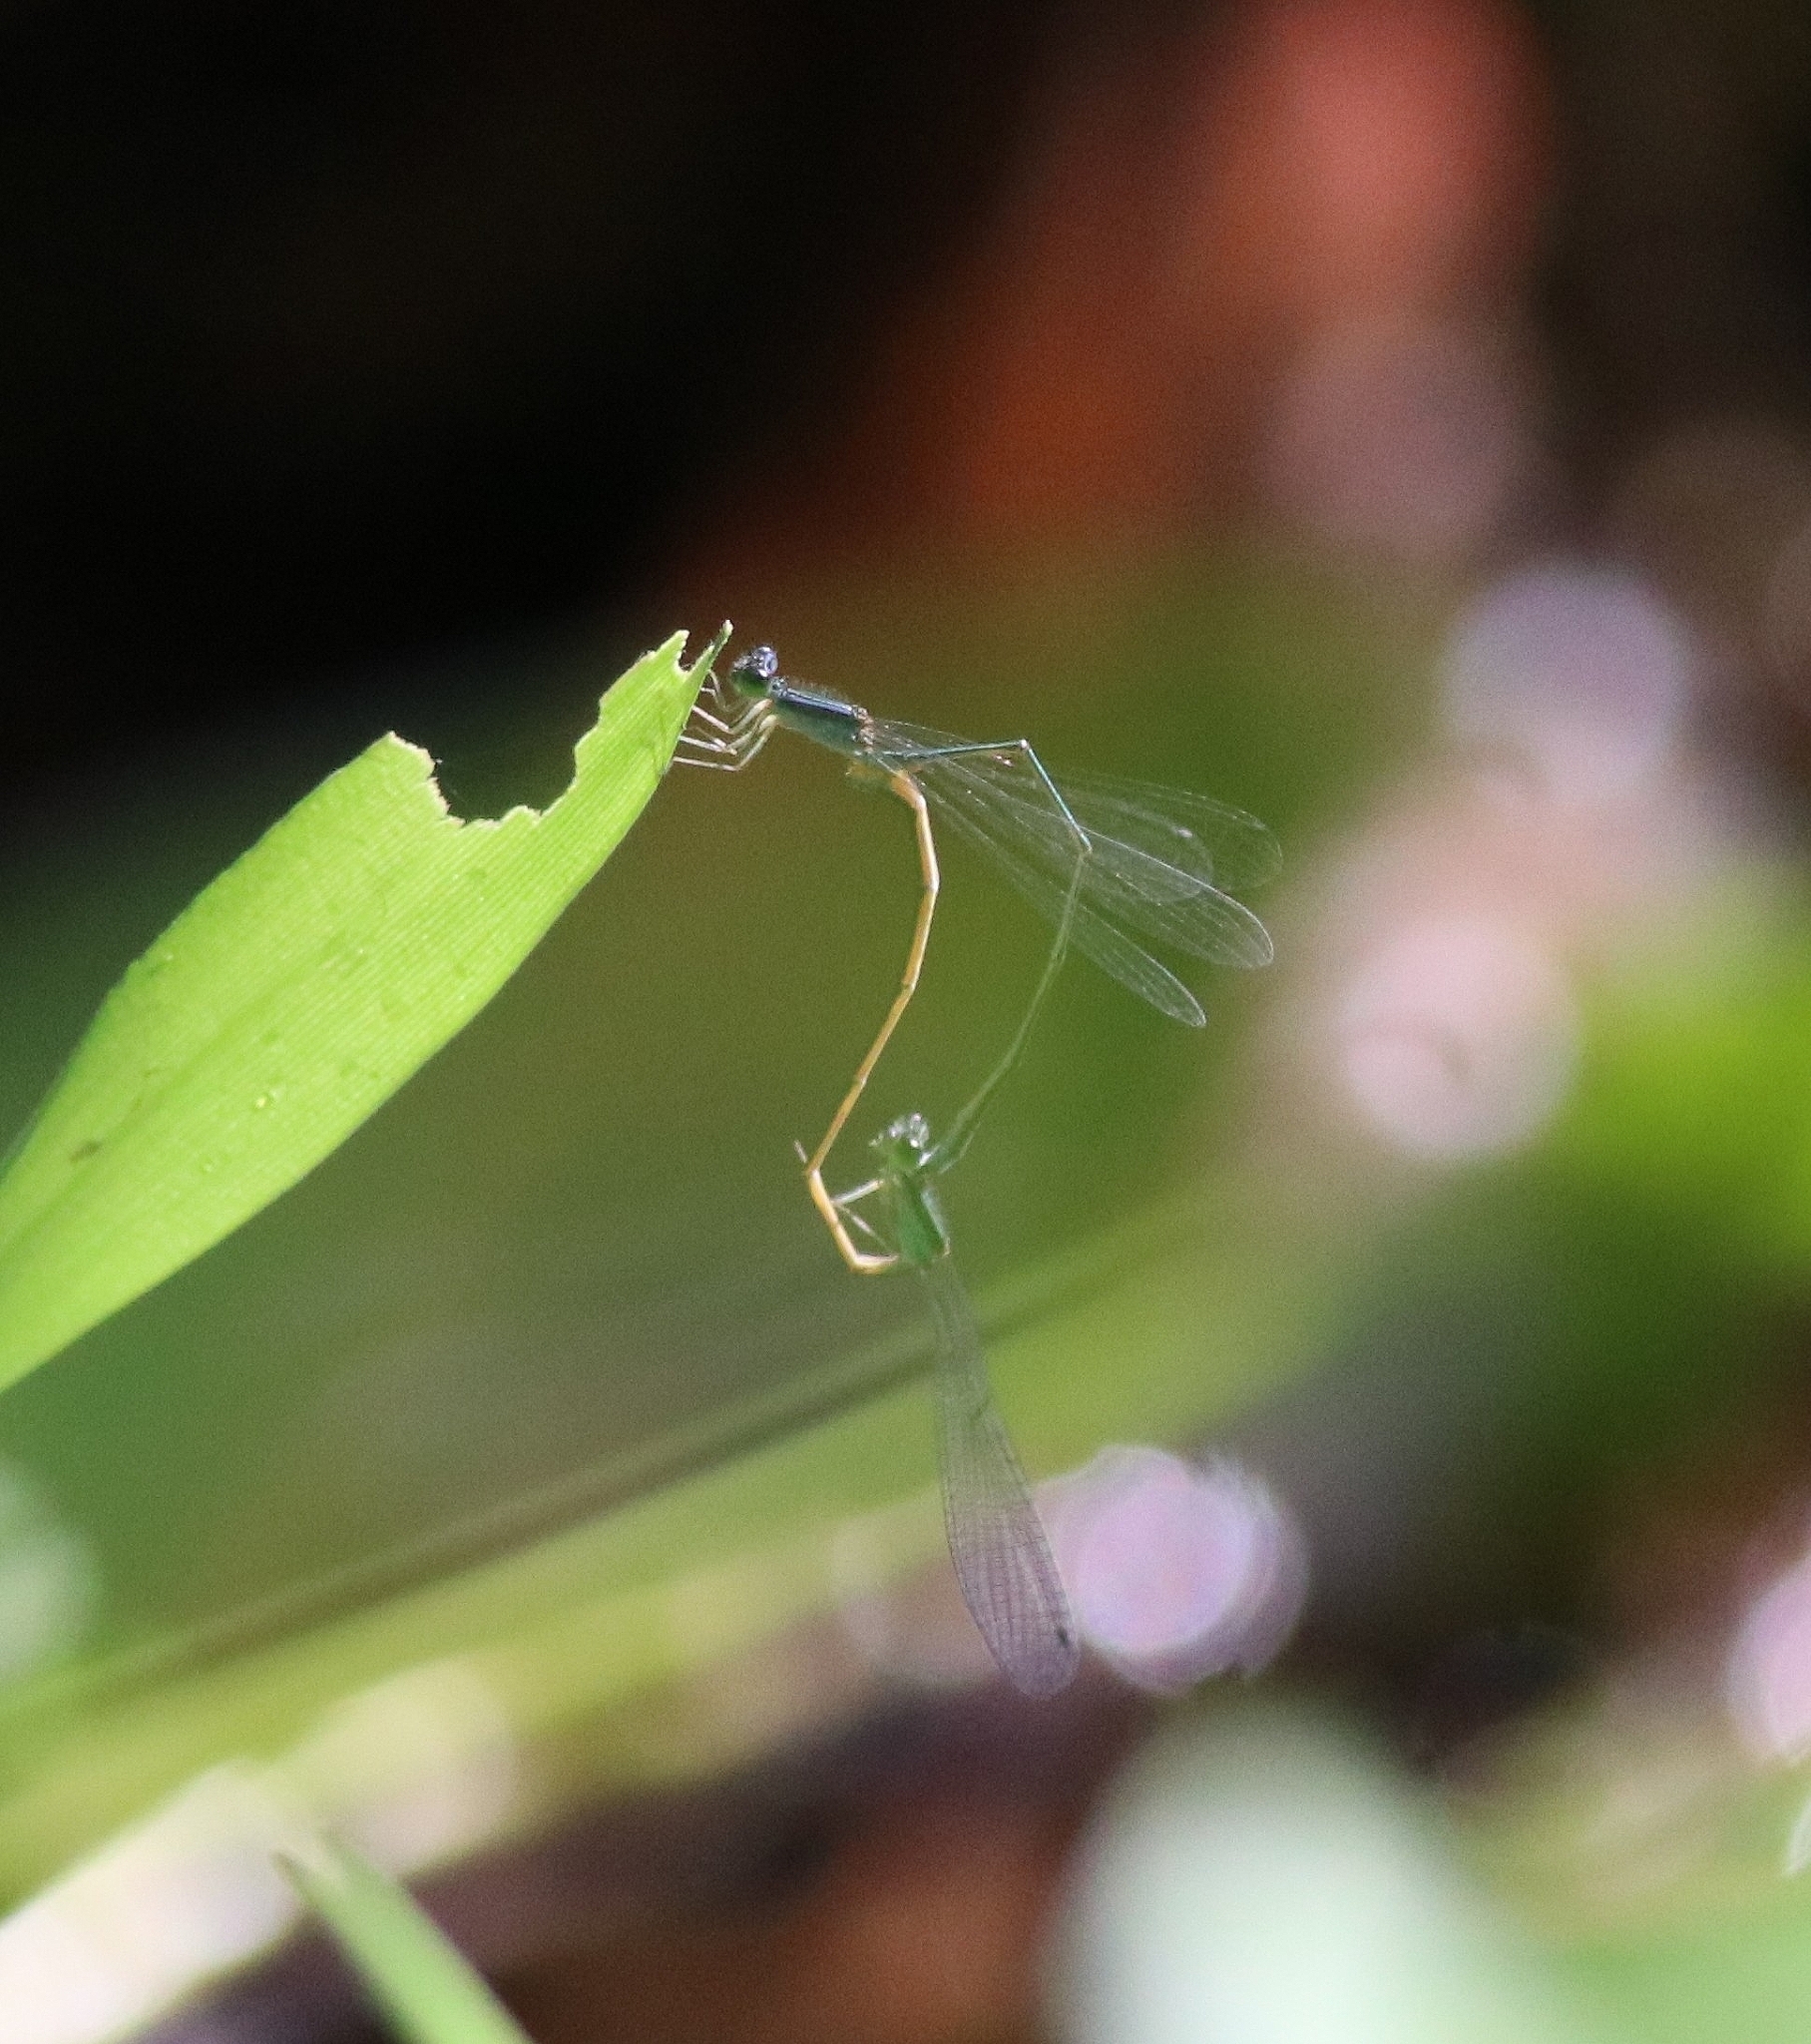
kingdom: Animalia
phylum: Arthropoda
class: Insecta
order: Odonata
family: Coenagrionidae
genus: Aciagrion
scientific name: Aciagrion approximans
